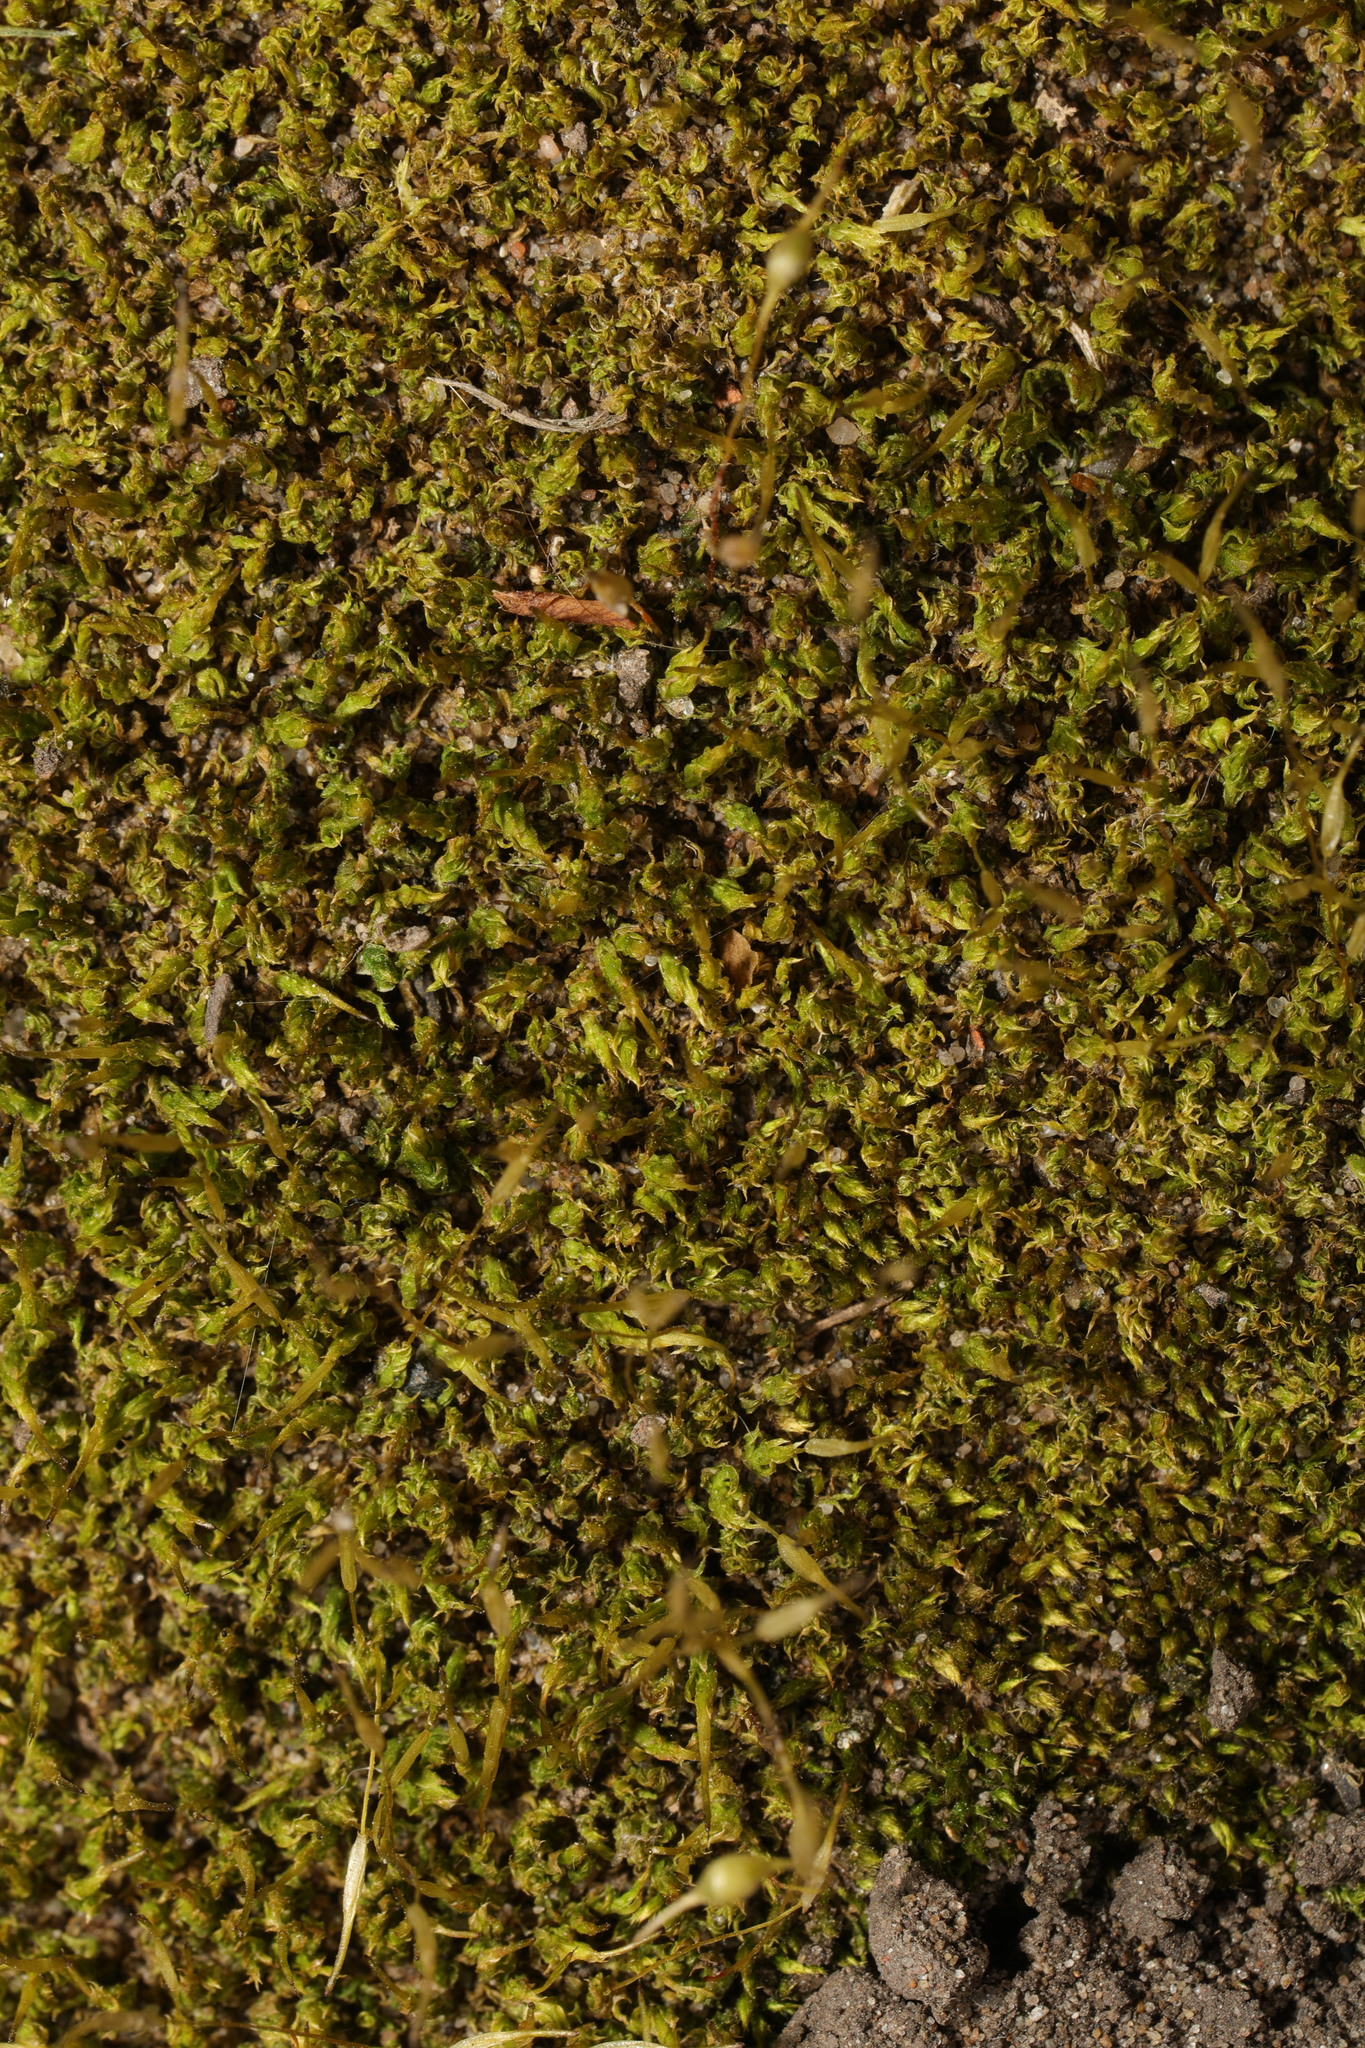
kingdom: Plantae
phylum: Bryophyta
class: Bryopsida
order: Funariales
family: Funariaceae
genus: Funaria
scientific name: Funaria hygrometrica
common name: Common cord moss
